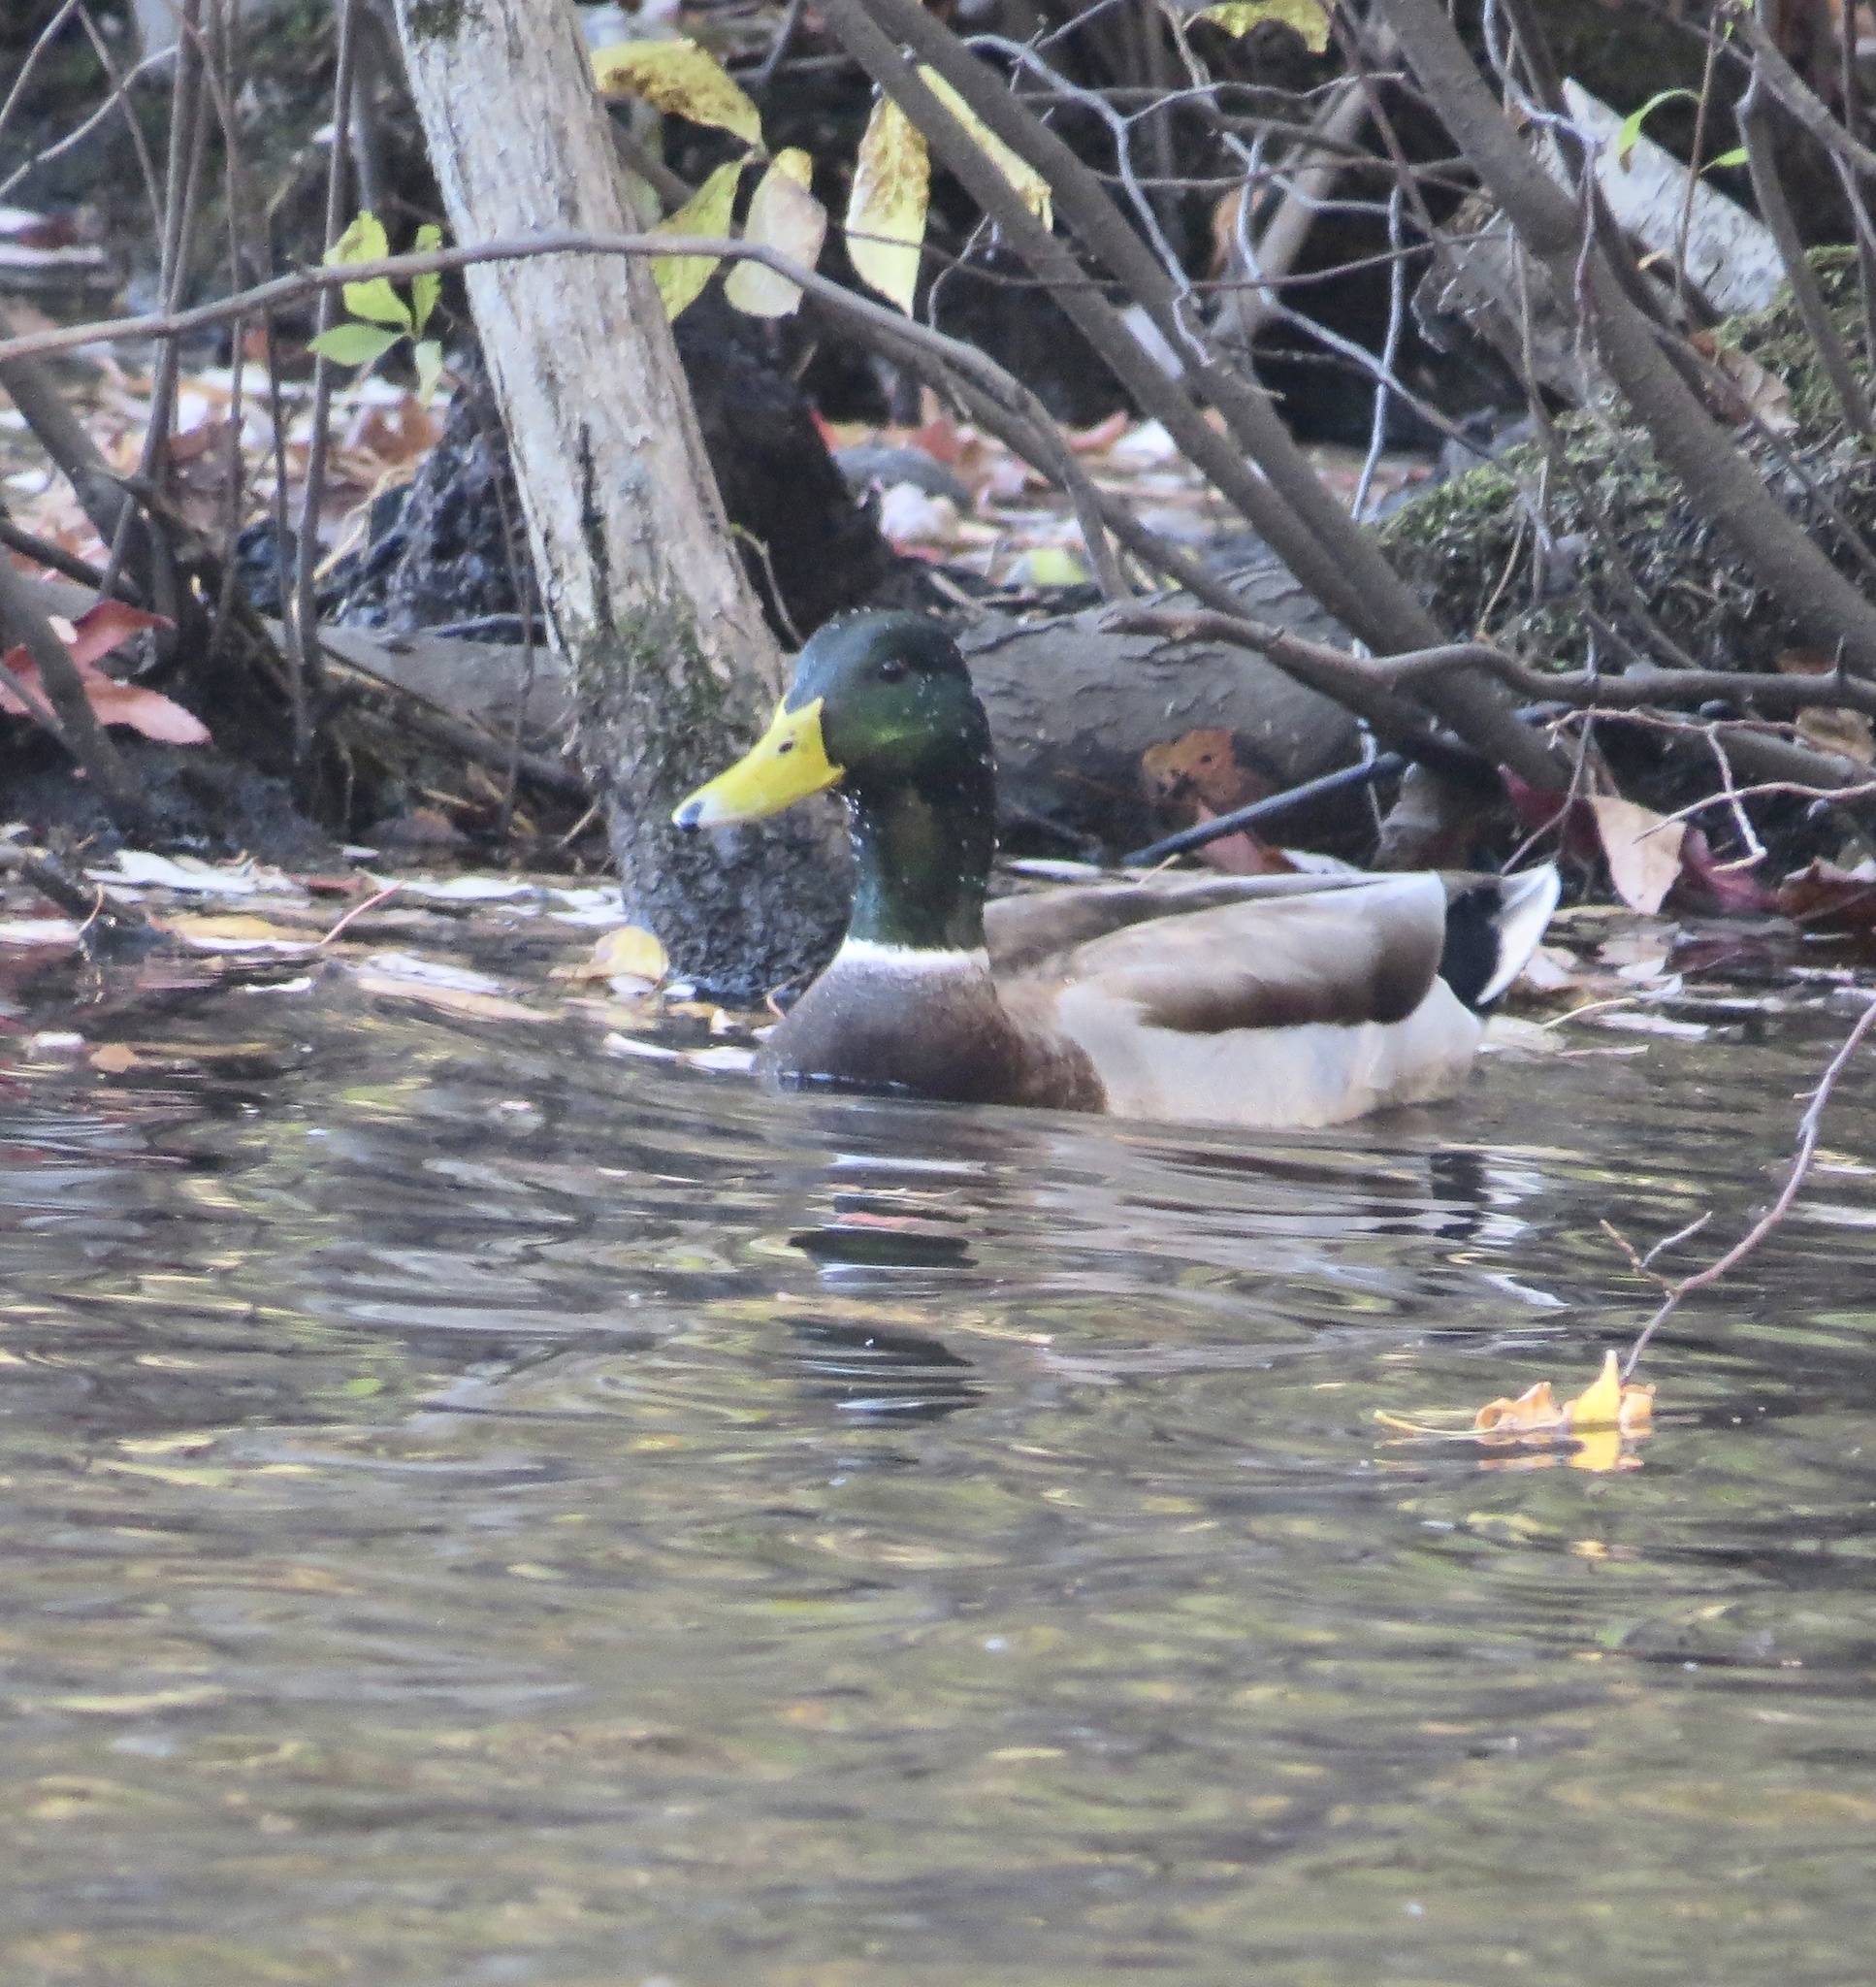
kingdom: Animalia
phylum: Chordata
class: Aves
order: Anseriformes
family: Anatidae
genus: Anas
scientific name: Anas platyrhynchos
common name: Mallard
